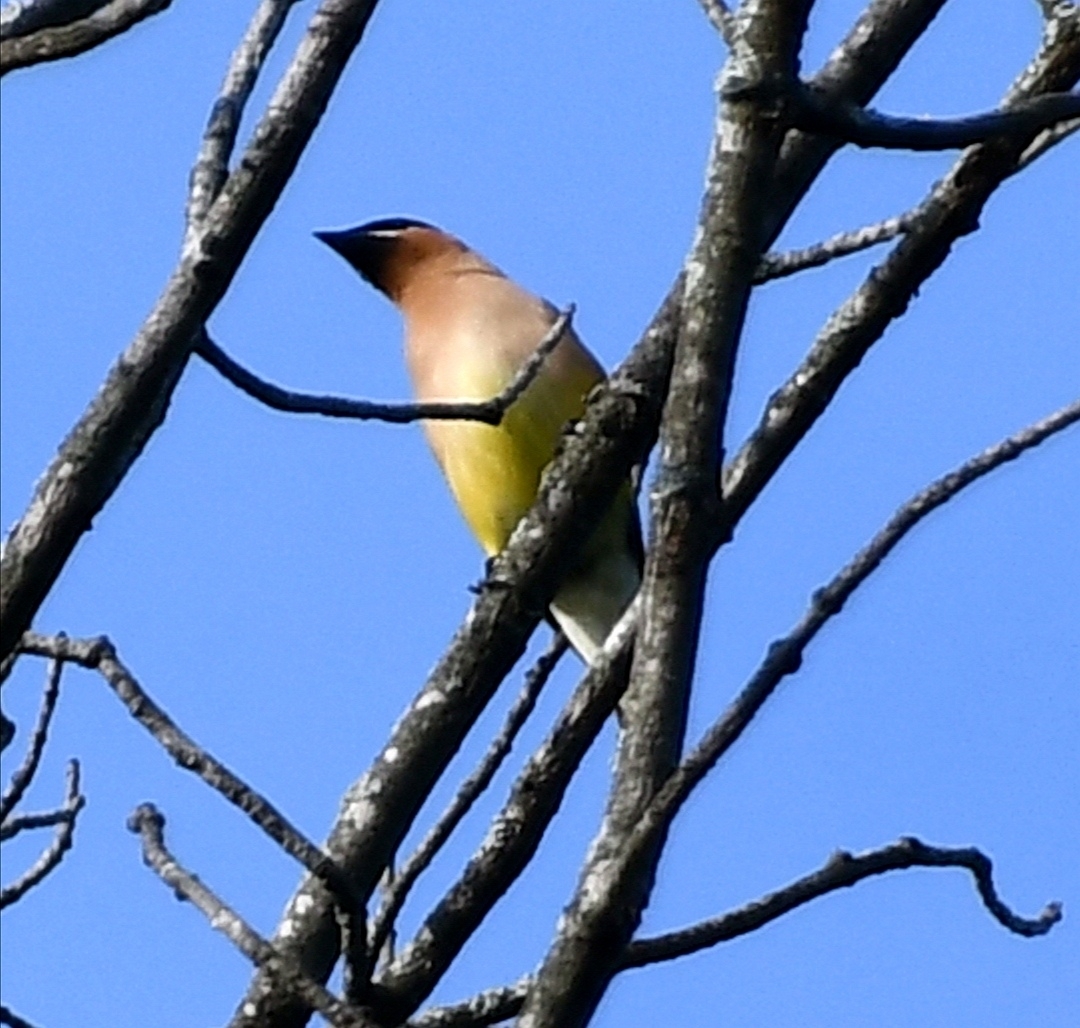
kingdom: Animalia
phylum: Chordata
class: Aves
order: Passeriformes
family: Bombycillidae
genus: Bombycilla
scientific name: Bombycilla cedrorum
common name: Cedar waxwing
